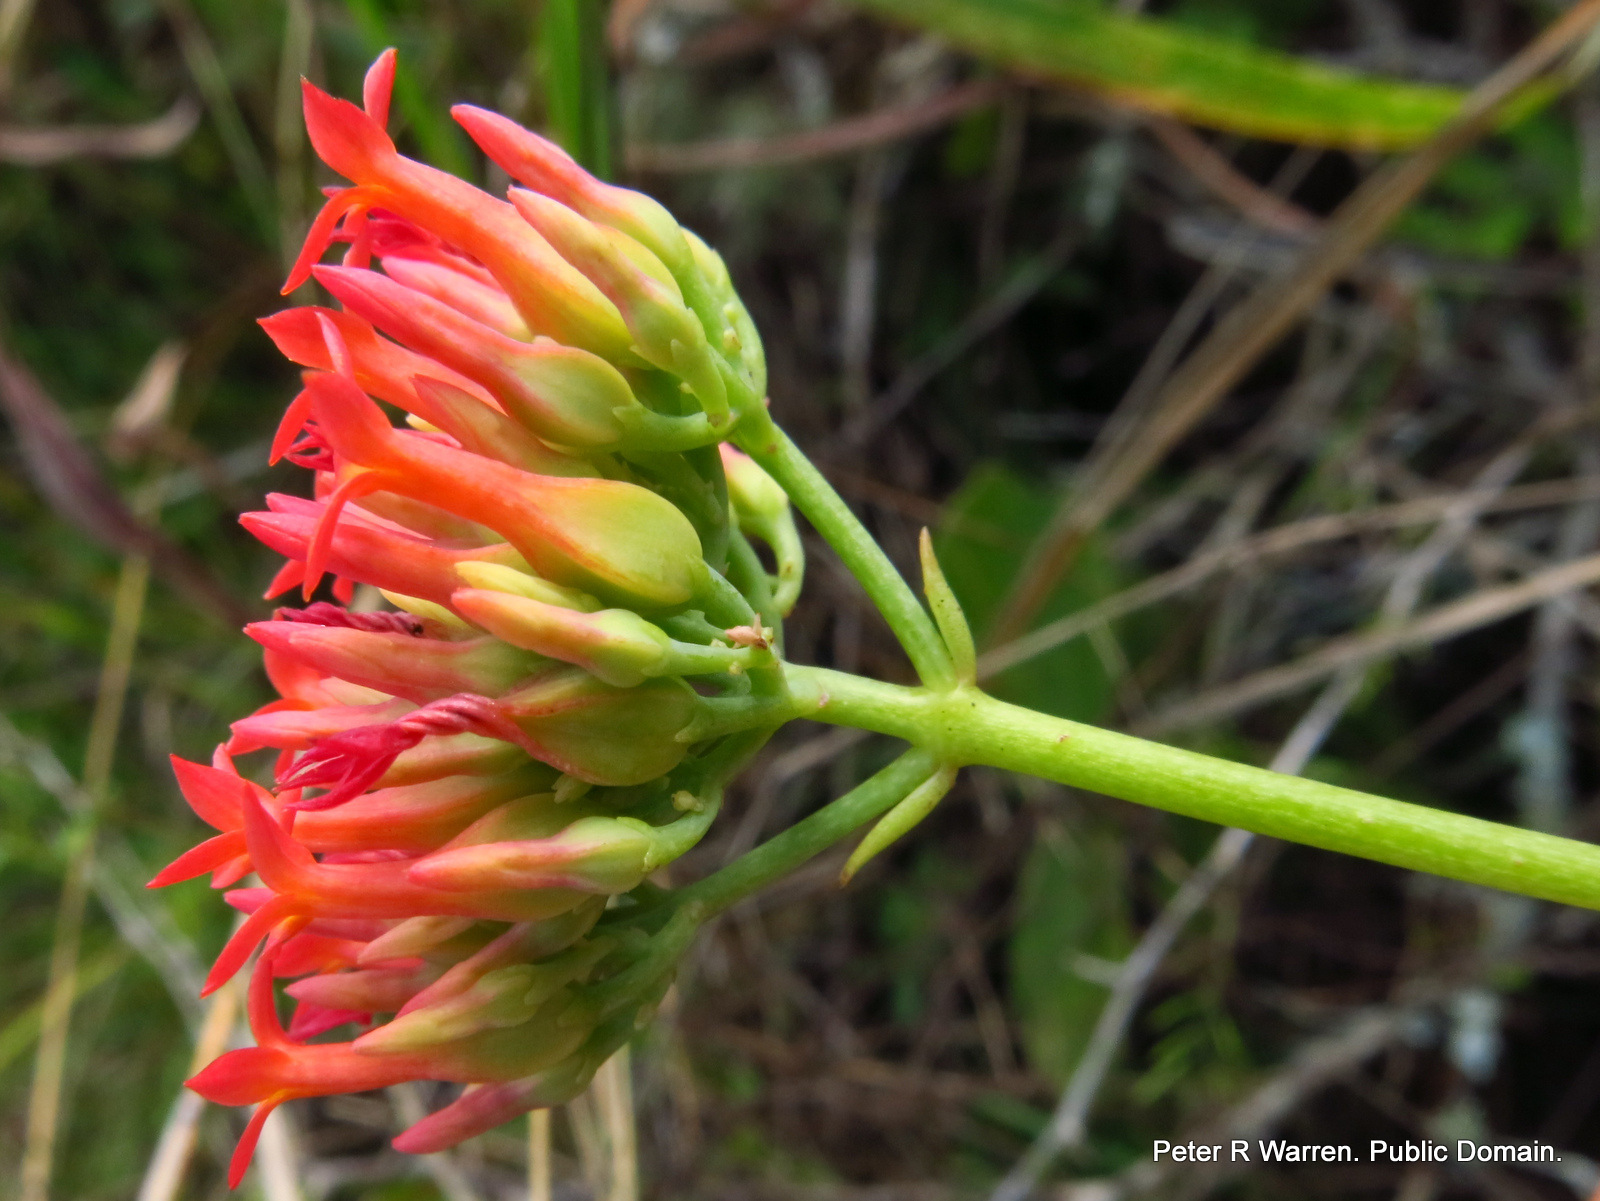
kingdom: Plantae
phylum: Tracheophyta
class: Magnoliopsida
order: Saxifragales
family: Crassulaceae
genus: Kalanchoe
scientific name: Kalanchoe rotundifolia
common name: Common kalanchoe
